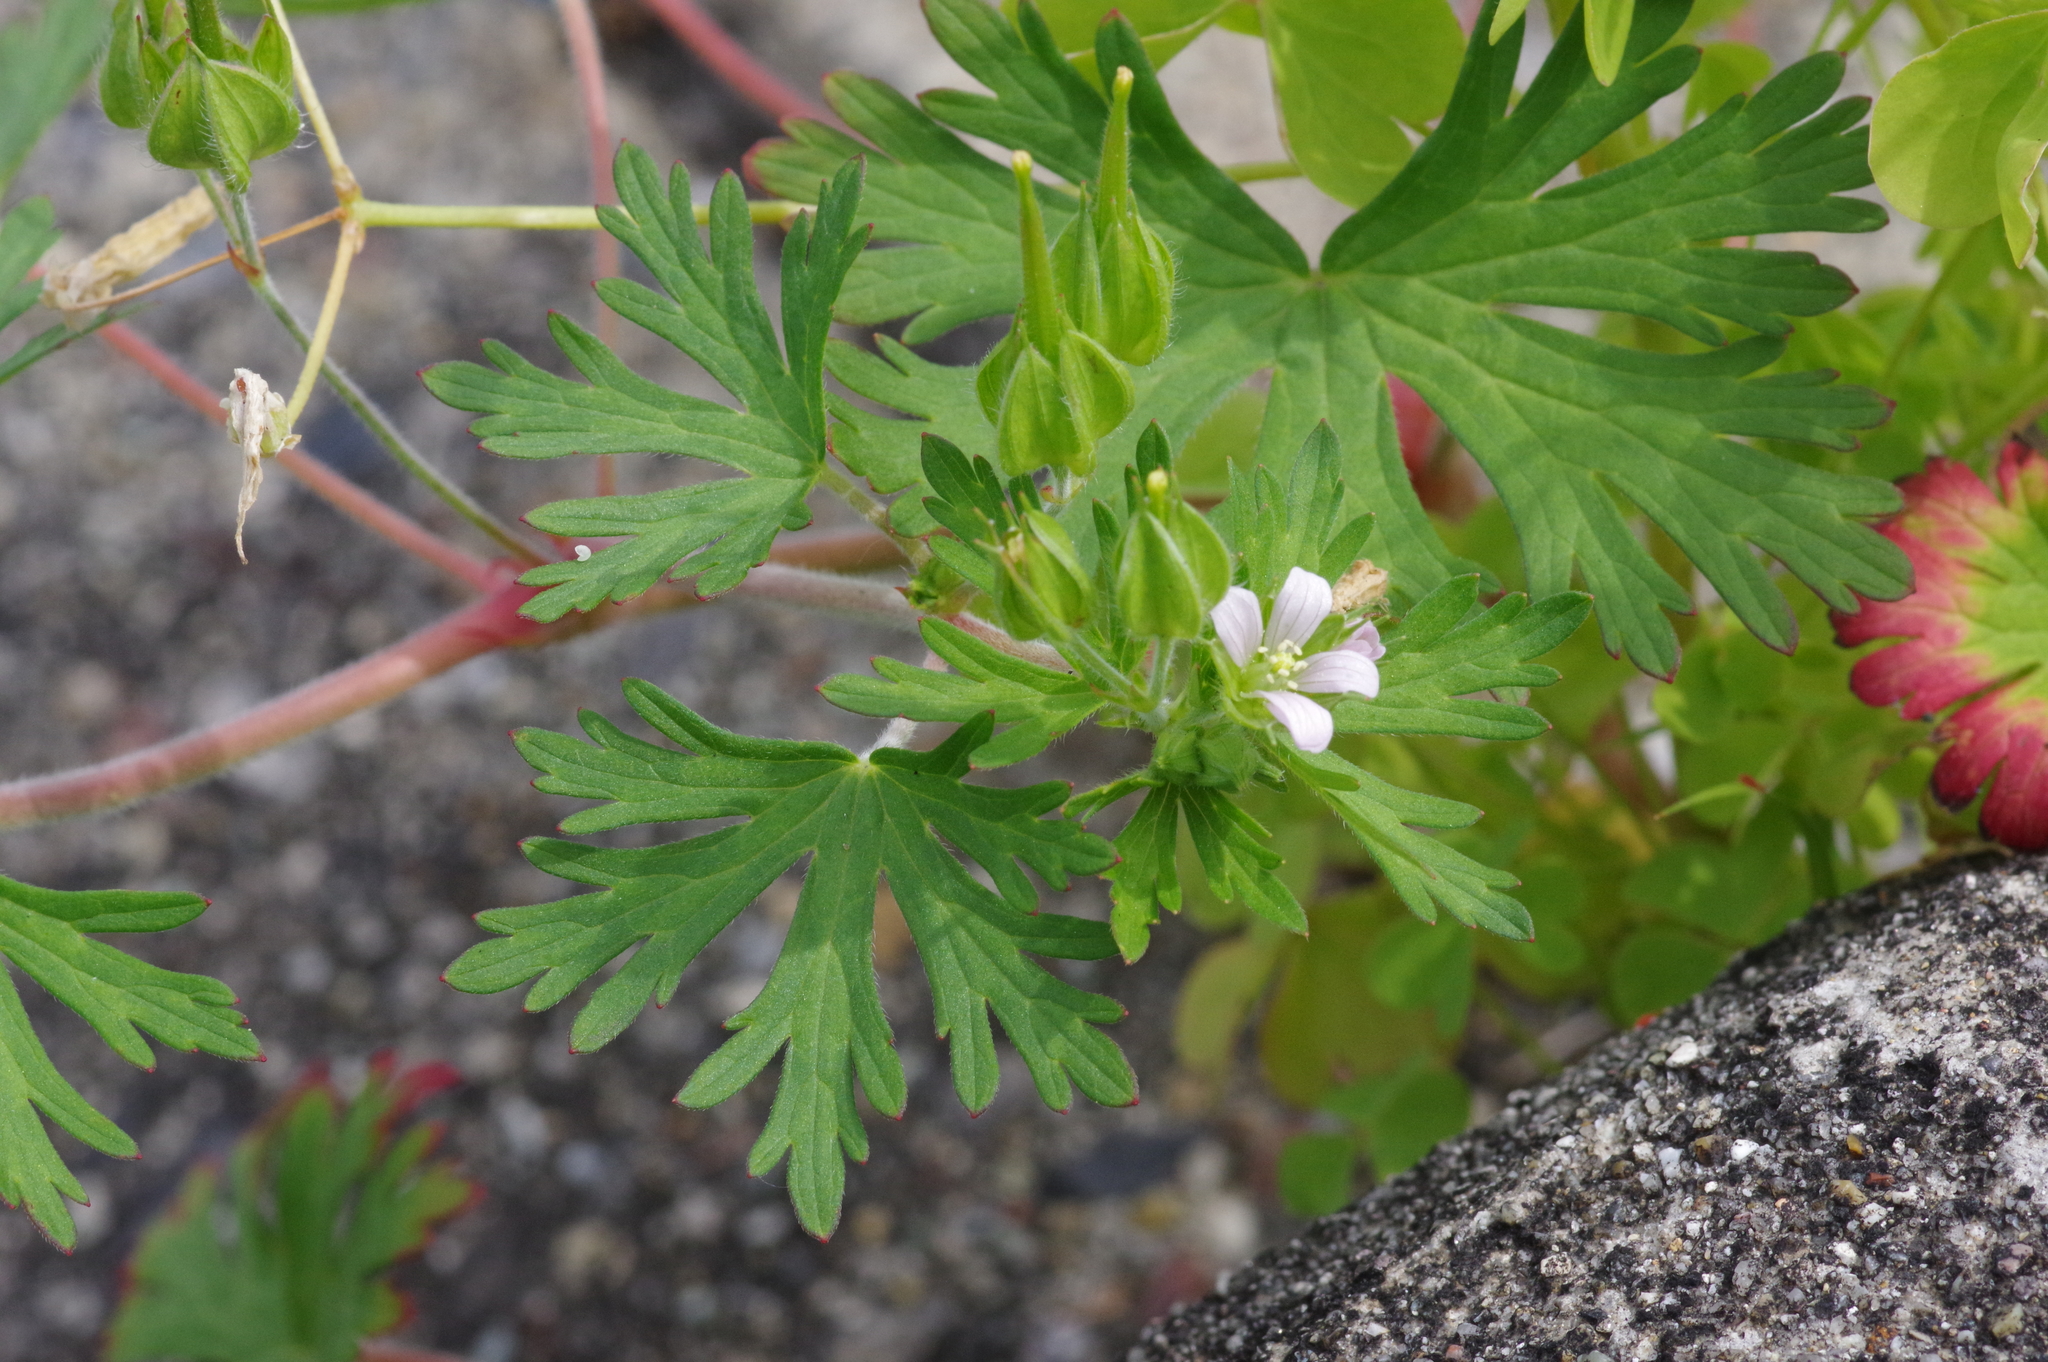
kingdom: Plantae
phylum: Tracheophyta
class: Magnoliopsida
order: Geraniales
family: Geraniaceae
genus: Geranium
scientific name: Geranium carolinianum
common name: Carolina crane's-bill
